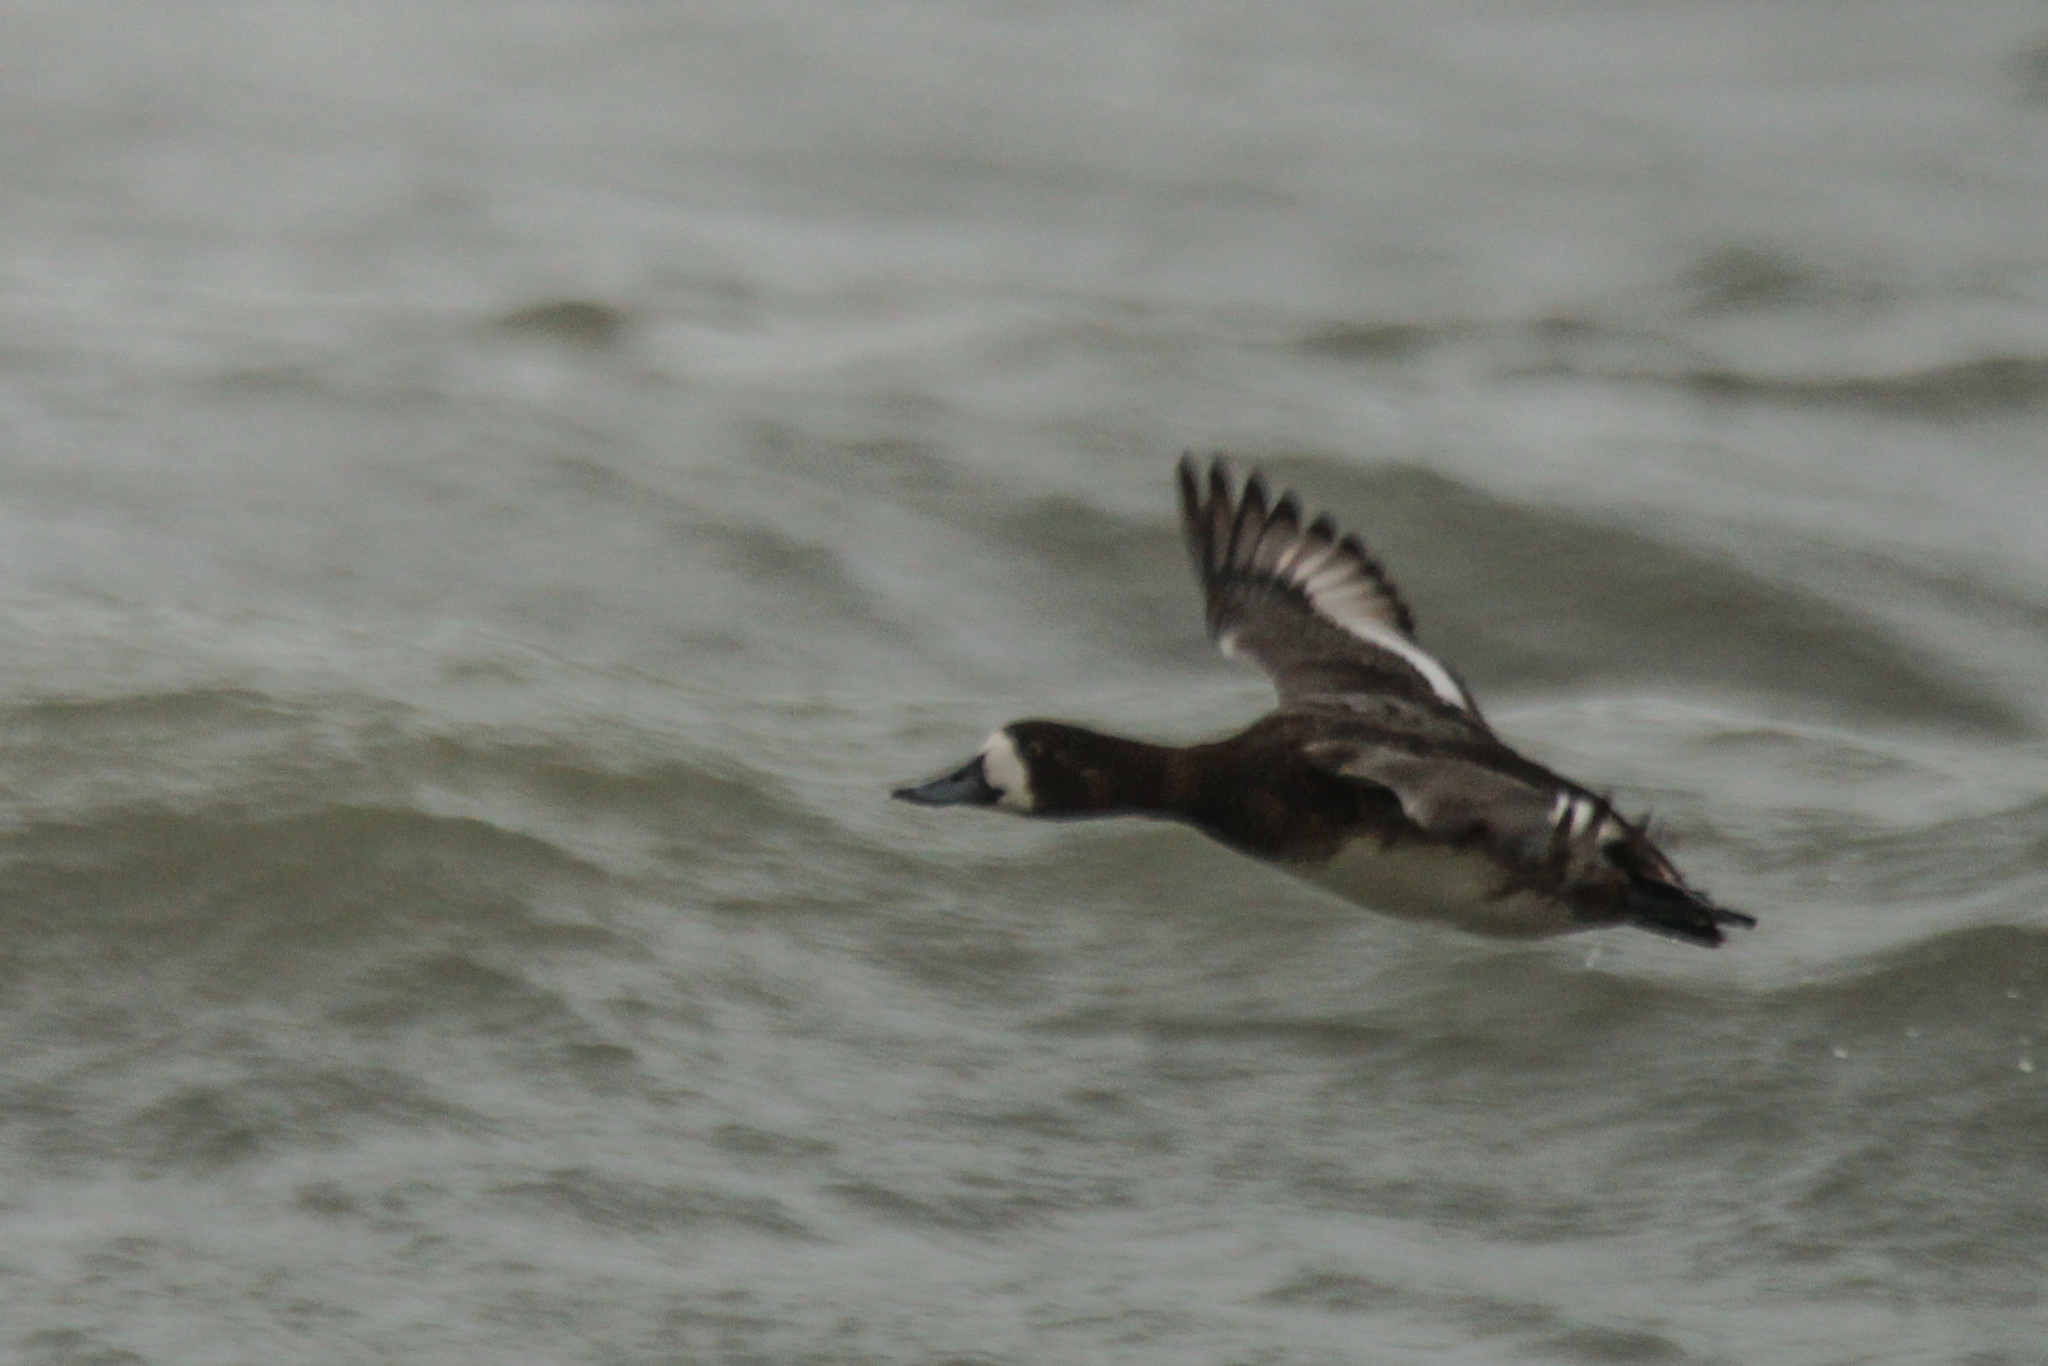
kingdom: Animalia
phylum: Chordata
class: Aves
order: Anseriformes
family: Anatidae
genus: Aythya
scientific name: Aythya marila
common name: Greater scaup
